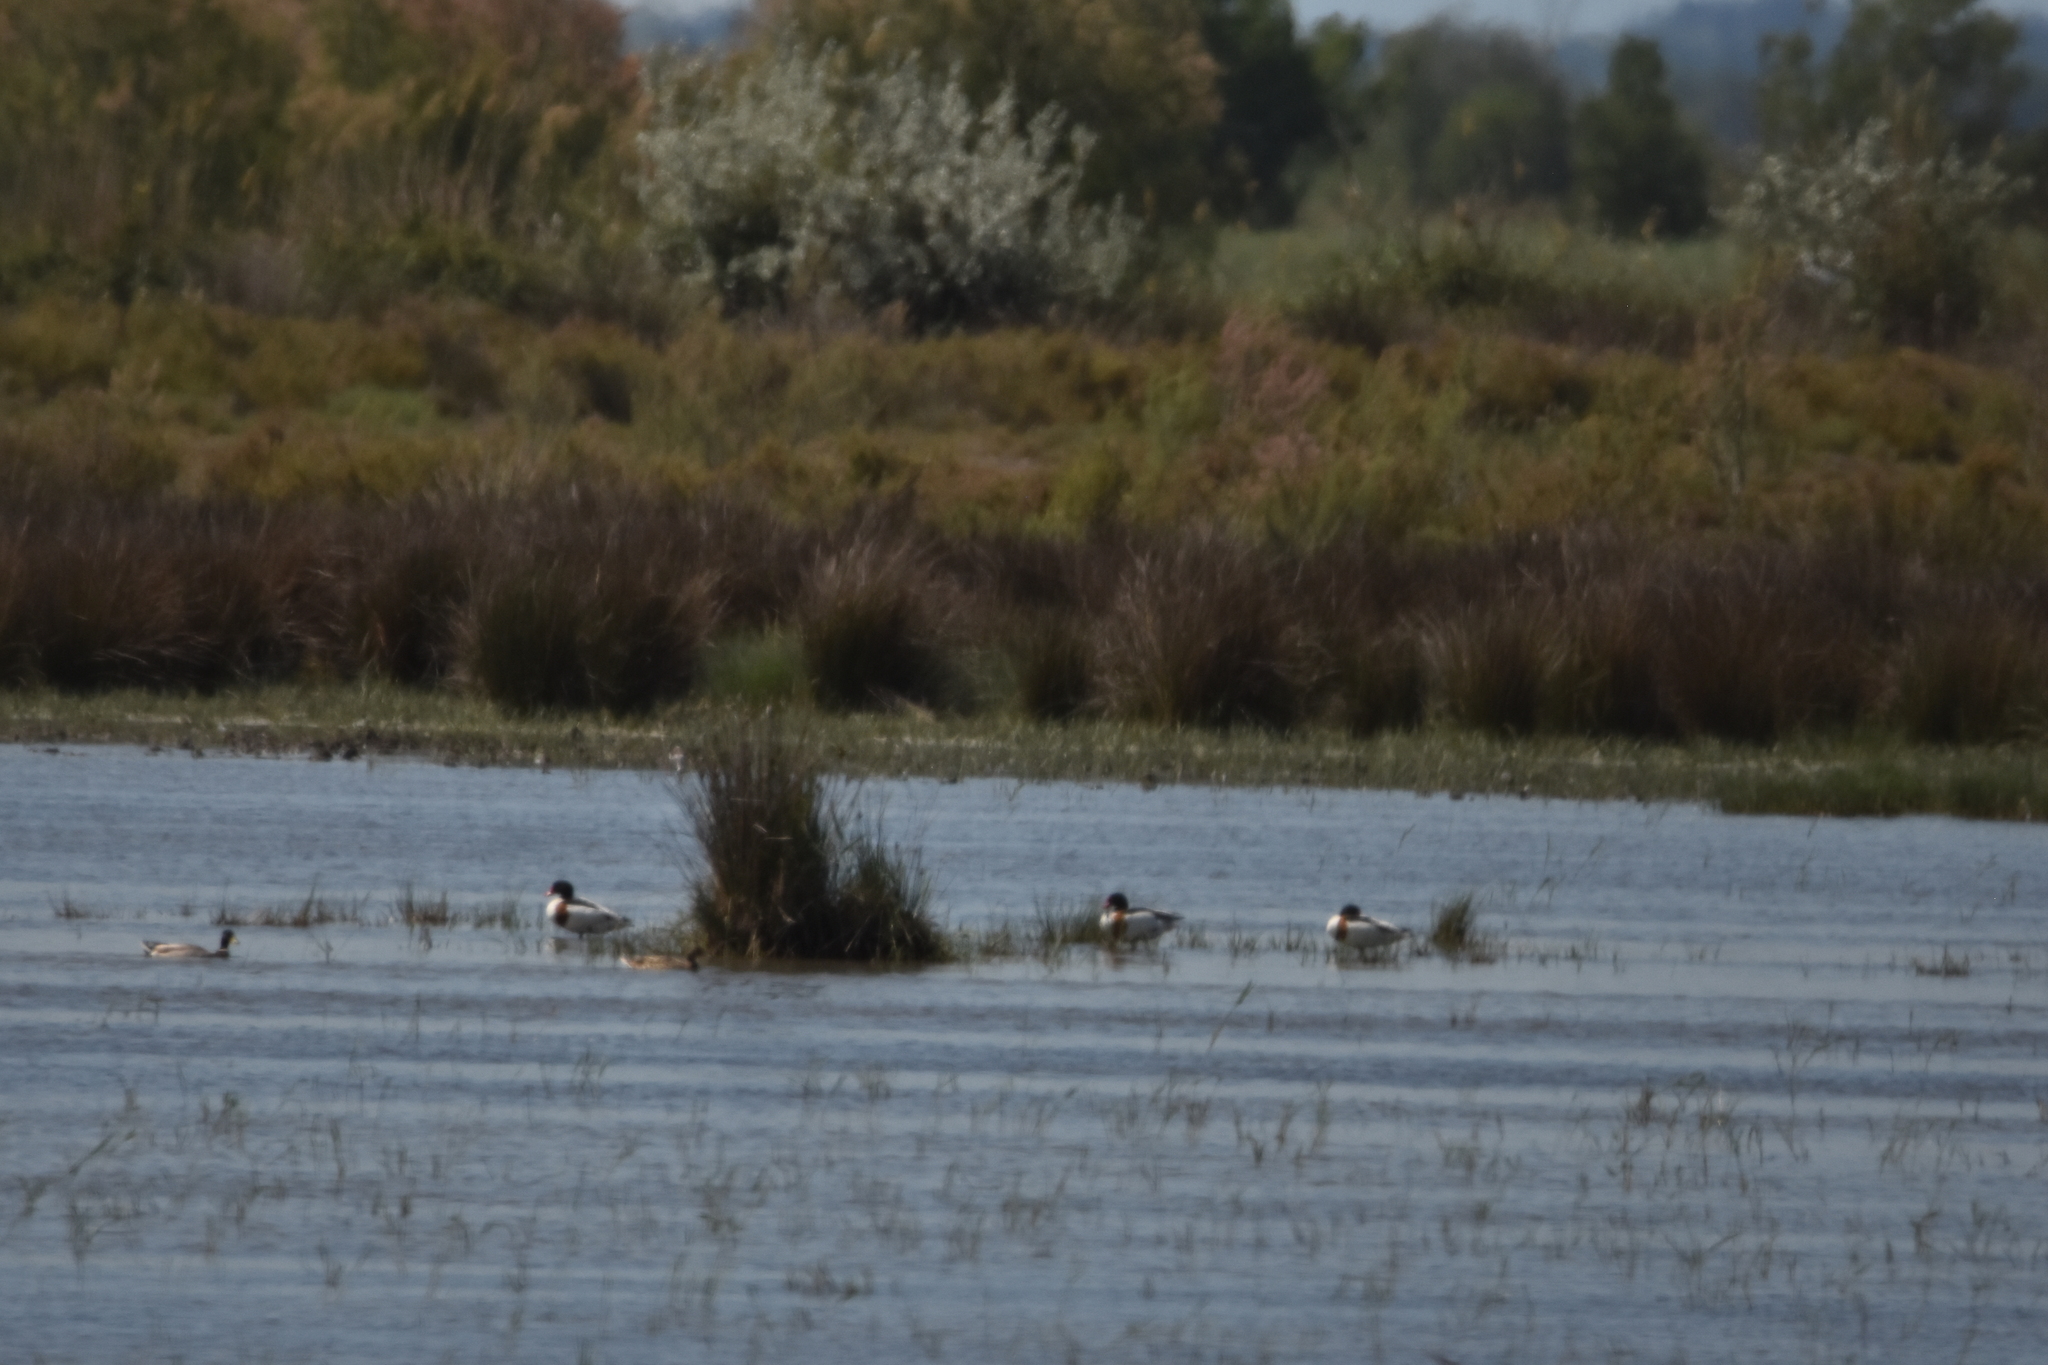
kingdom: Animalia
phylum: Chordata
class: Aves
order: Anseriformes
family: Anatidae
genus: Tadorna
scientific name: Tadorna tadorna
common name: Common shelduck
